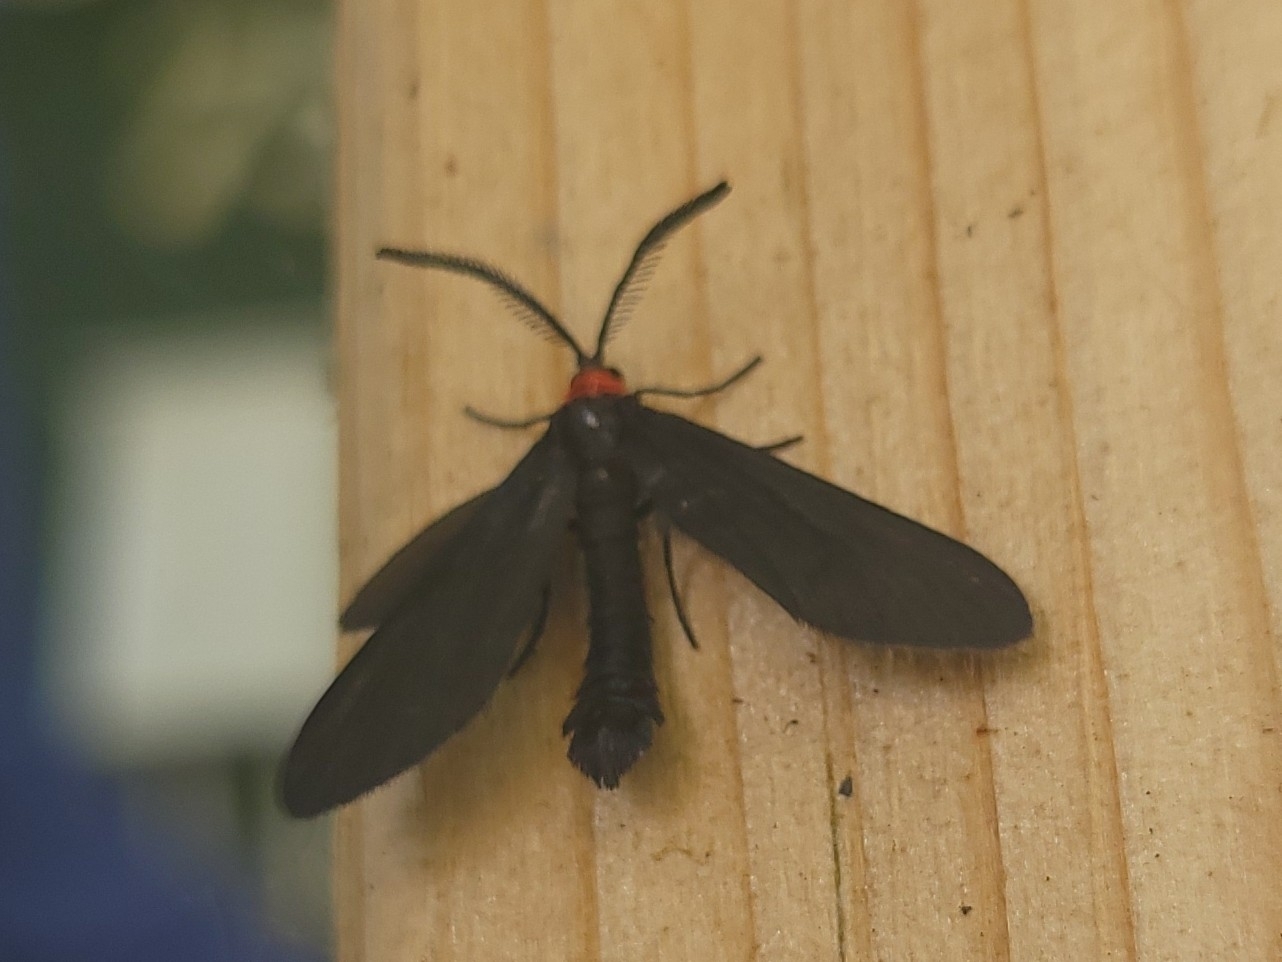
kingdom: Animalia
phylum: Arthropoda
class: Insecta
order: Lepidoptera
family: Zygaenidae
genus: Harrisina
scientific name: Harrisina americana
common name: Grapeleaf skeletonizer moth
